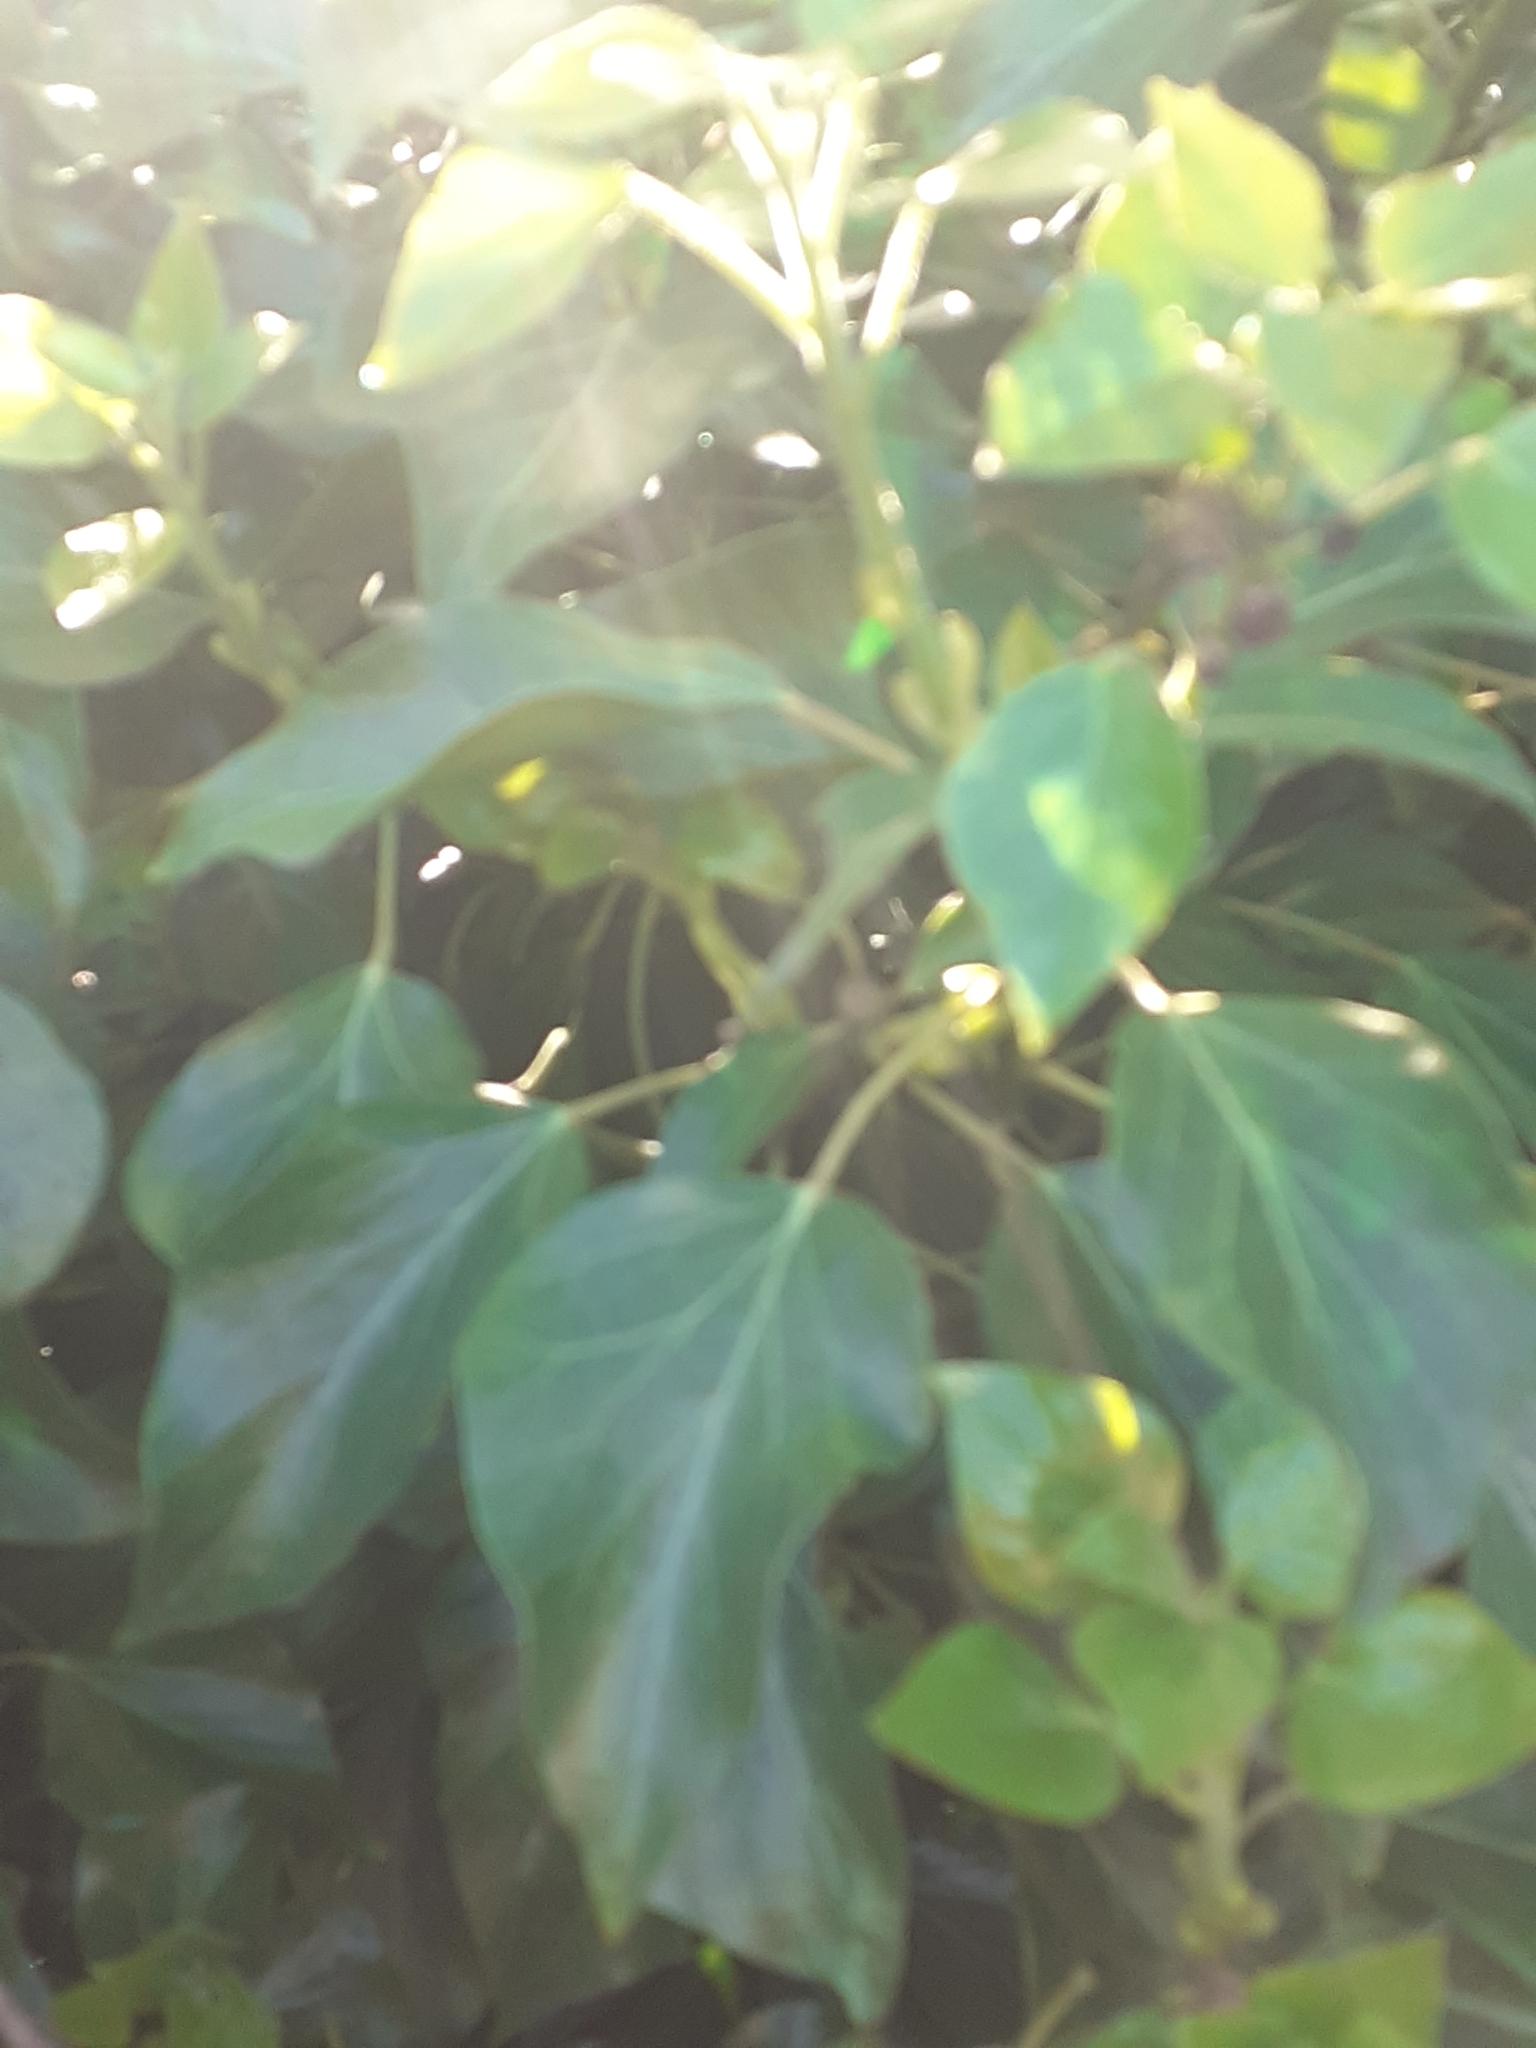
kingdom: Plantae
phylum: Tracheophyta
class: Magnoliopsida
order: Apiales
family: Araliaceae
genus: Hedera
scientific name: Hedera helix
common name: Ivy
